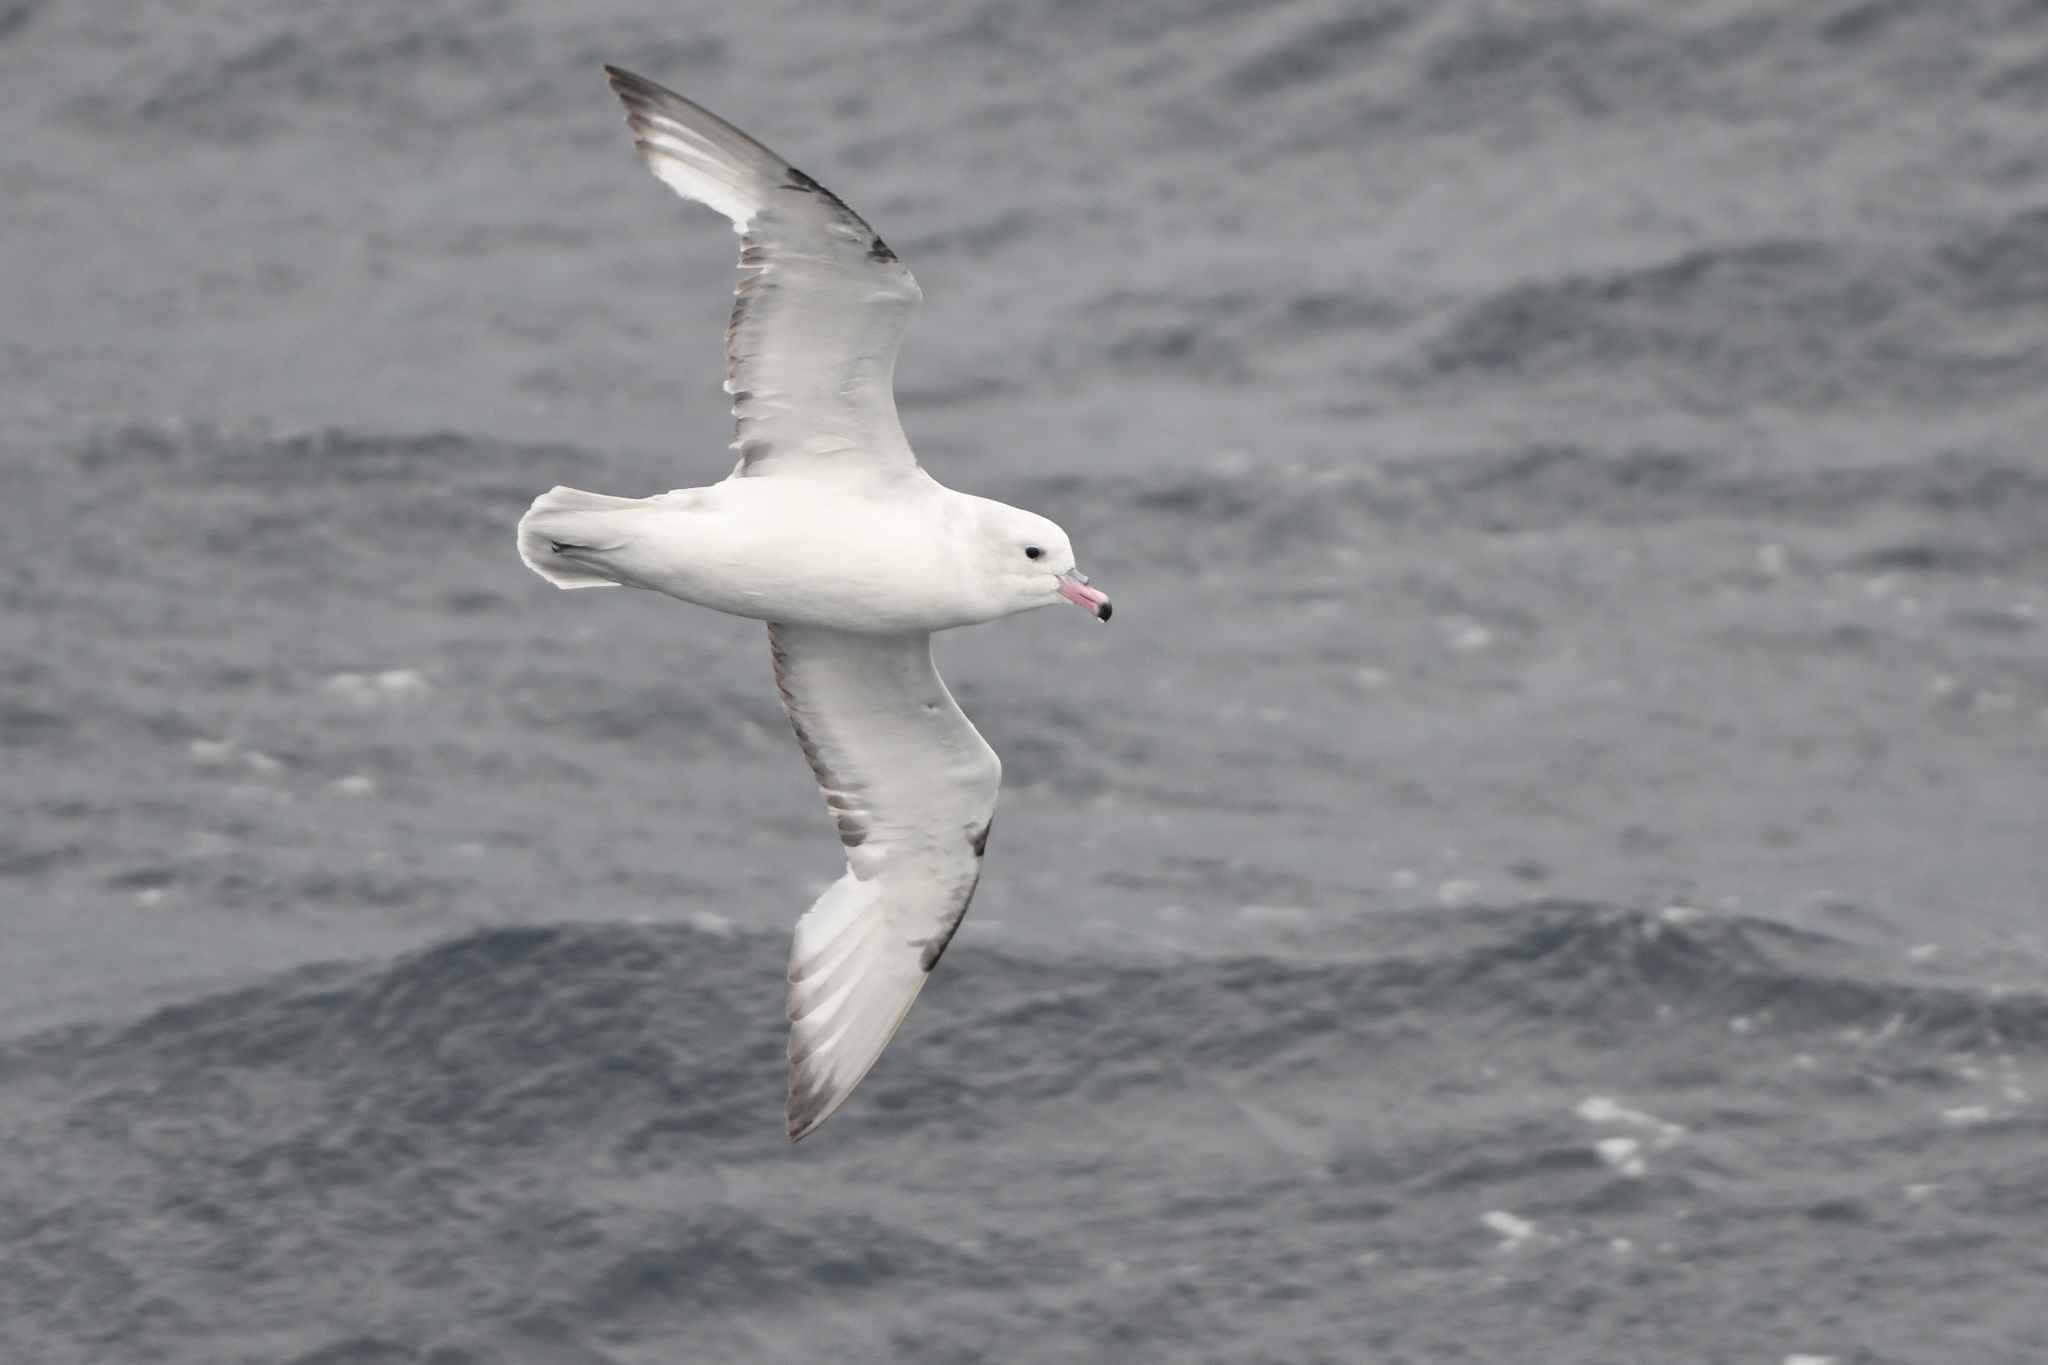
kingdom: Animalia
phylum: Chordata
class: Aves
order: Procellariiformes
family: Procellariidae
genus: Fulmarus
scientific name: Fulmarus glacialoides
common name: Southern fulmar
